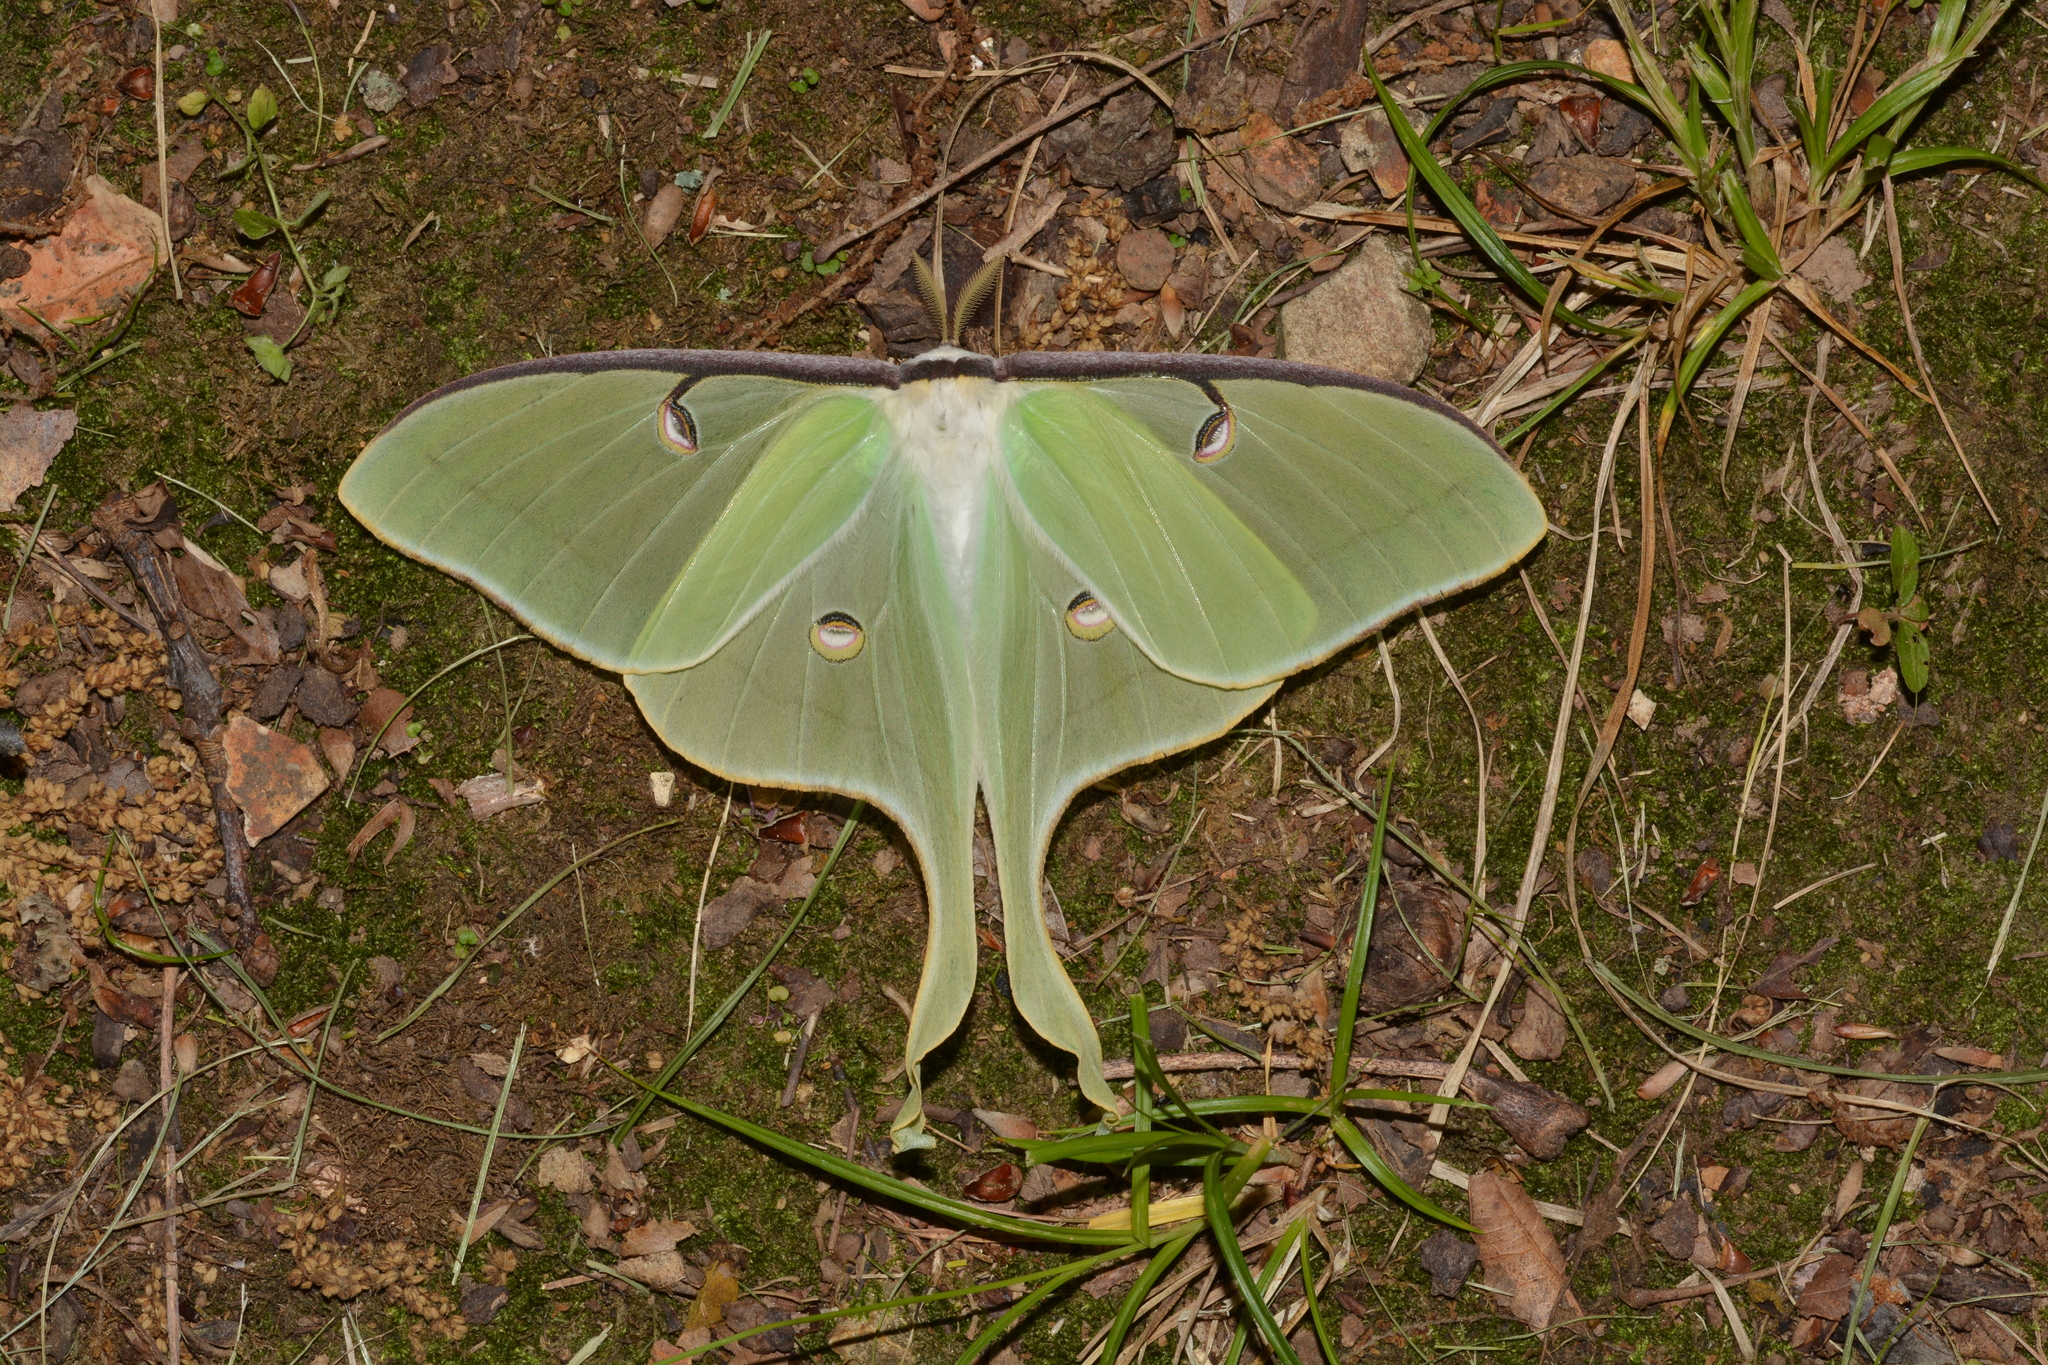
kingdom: Animalia
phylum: Arthropoda
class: Insecta
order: Lepidoptera
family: Saturniidae
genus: Actias
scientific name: Actias luna
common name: Luna moth
